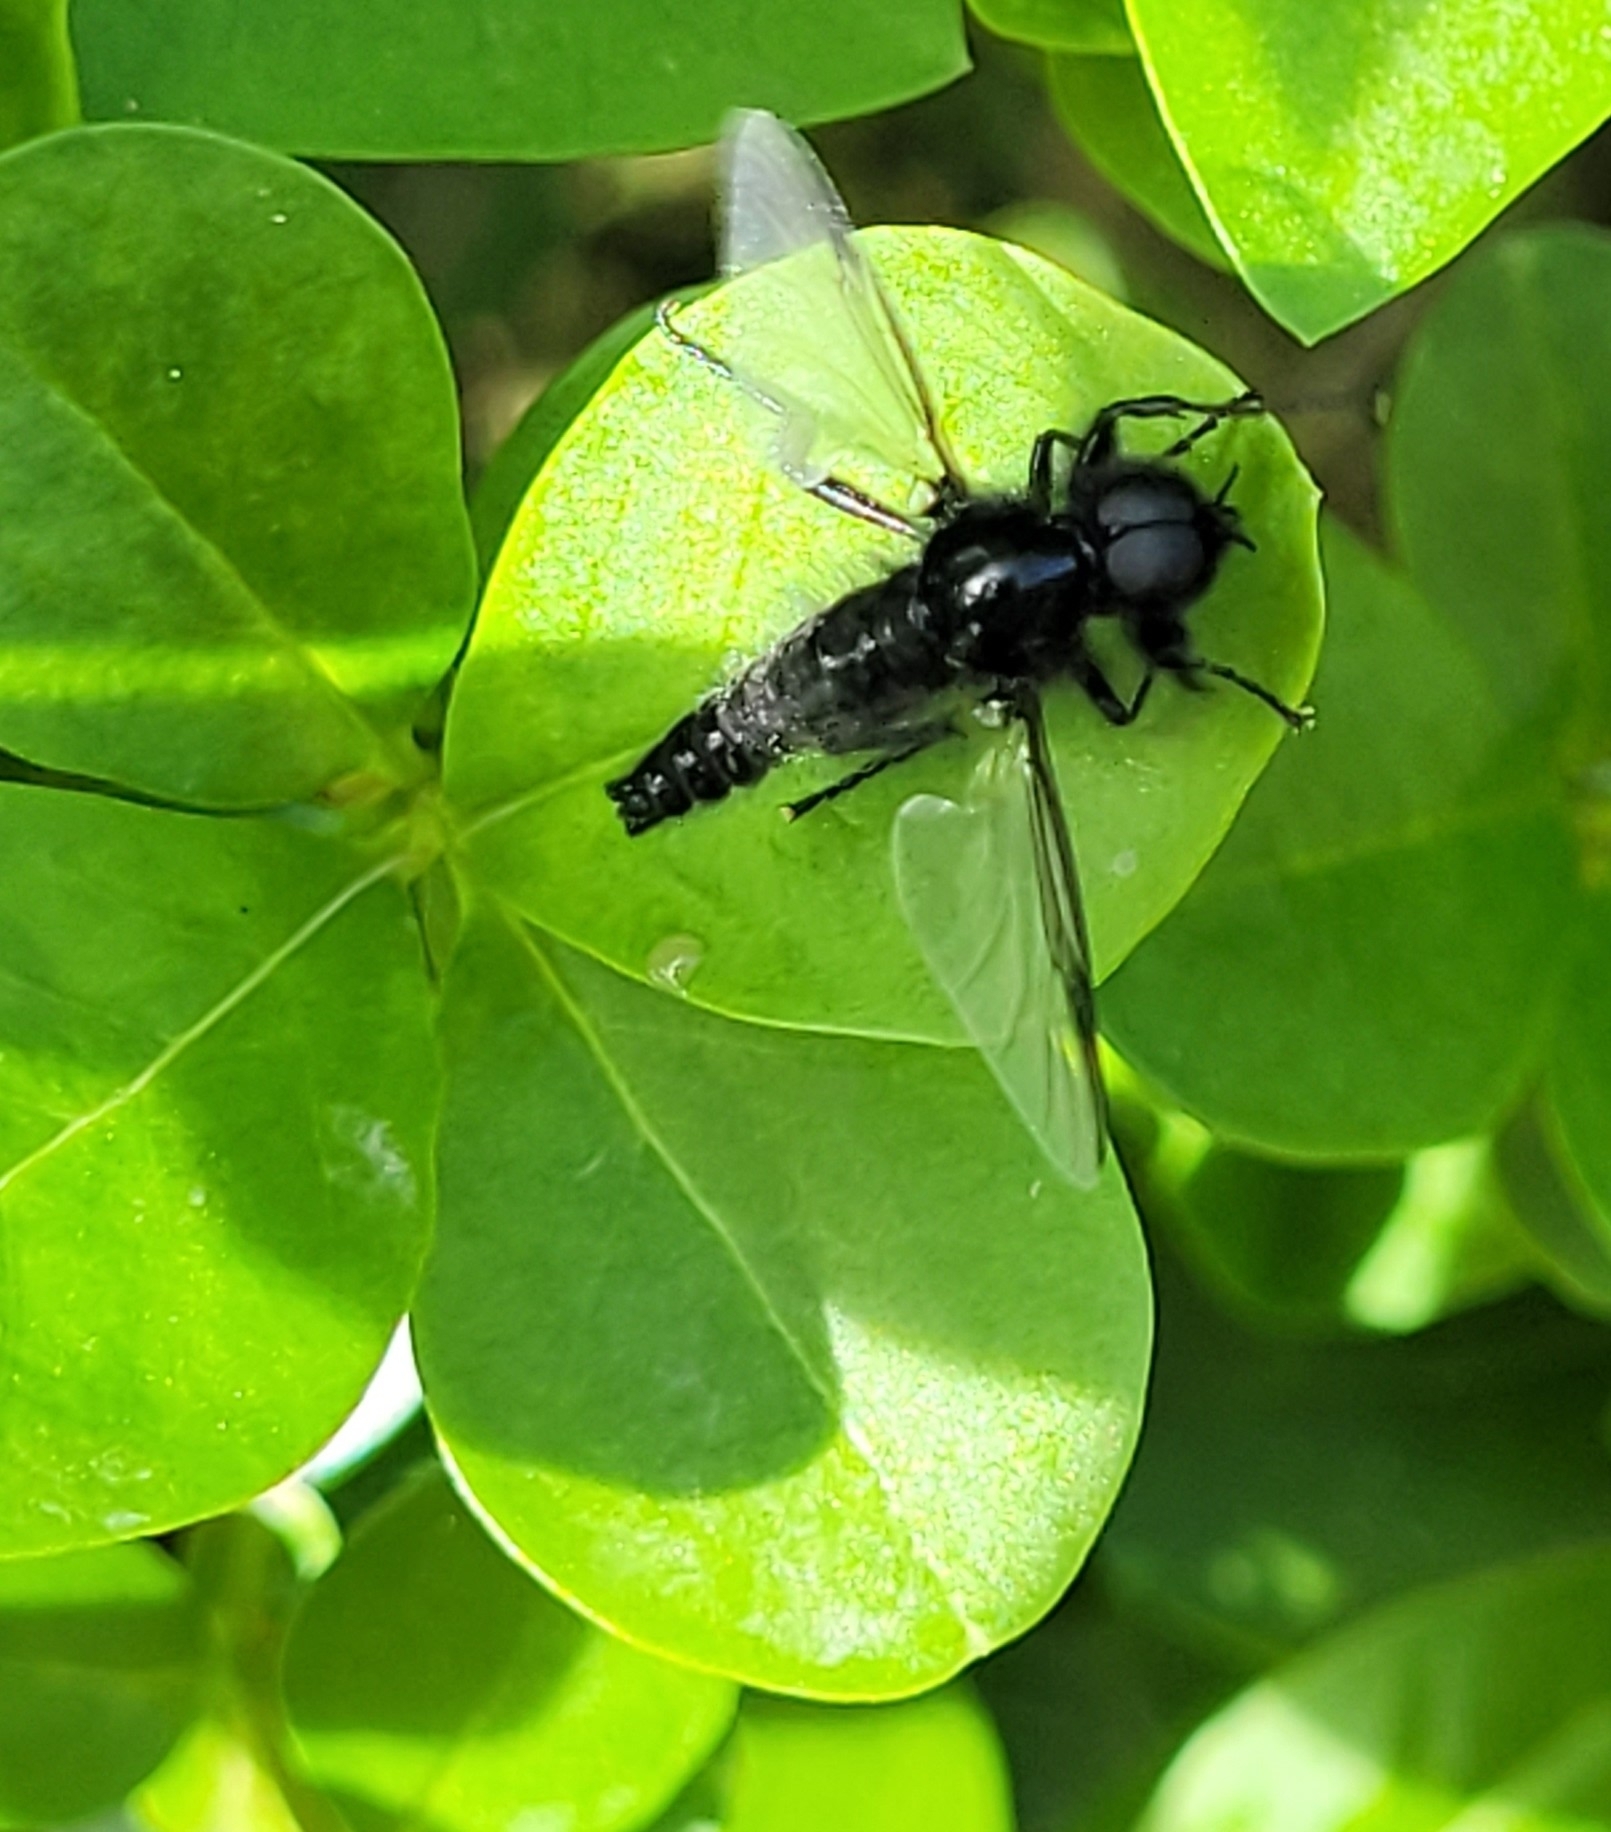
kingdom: Animalia
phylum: Arthropoda
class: Insecta
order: Diptera
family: Bibionidae
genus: Bibio
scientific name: Bibio marci
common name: St marks fly
